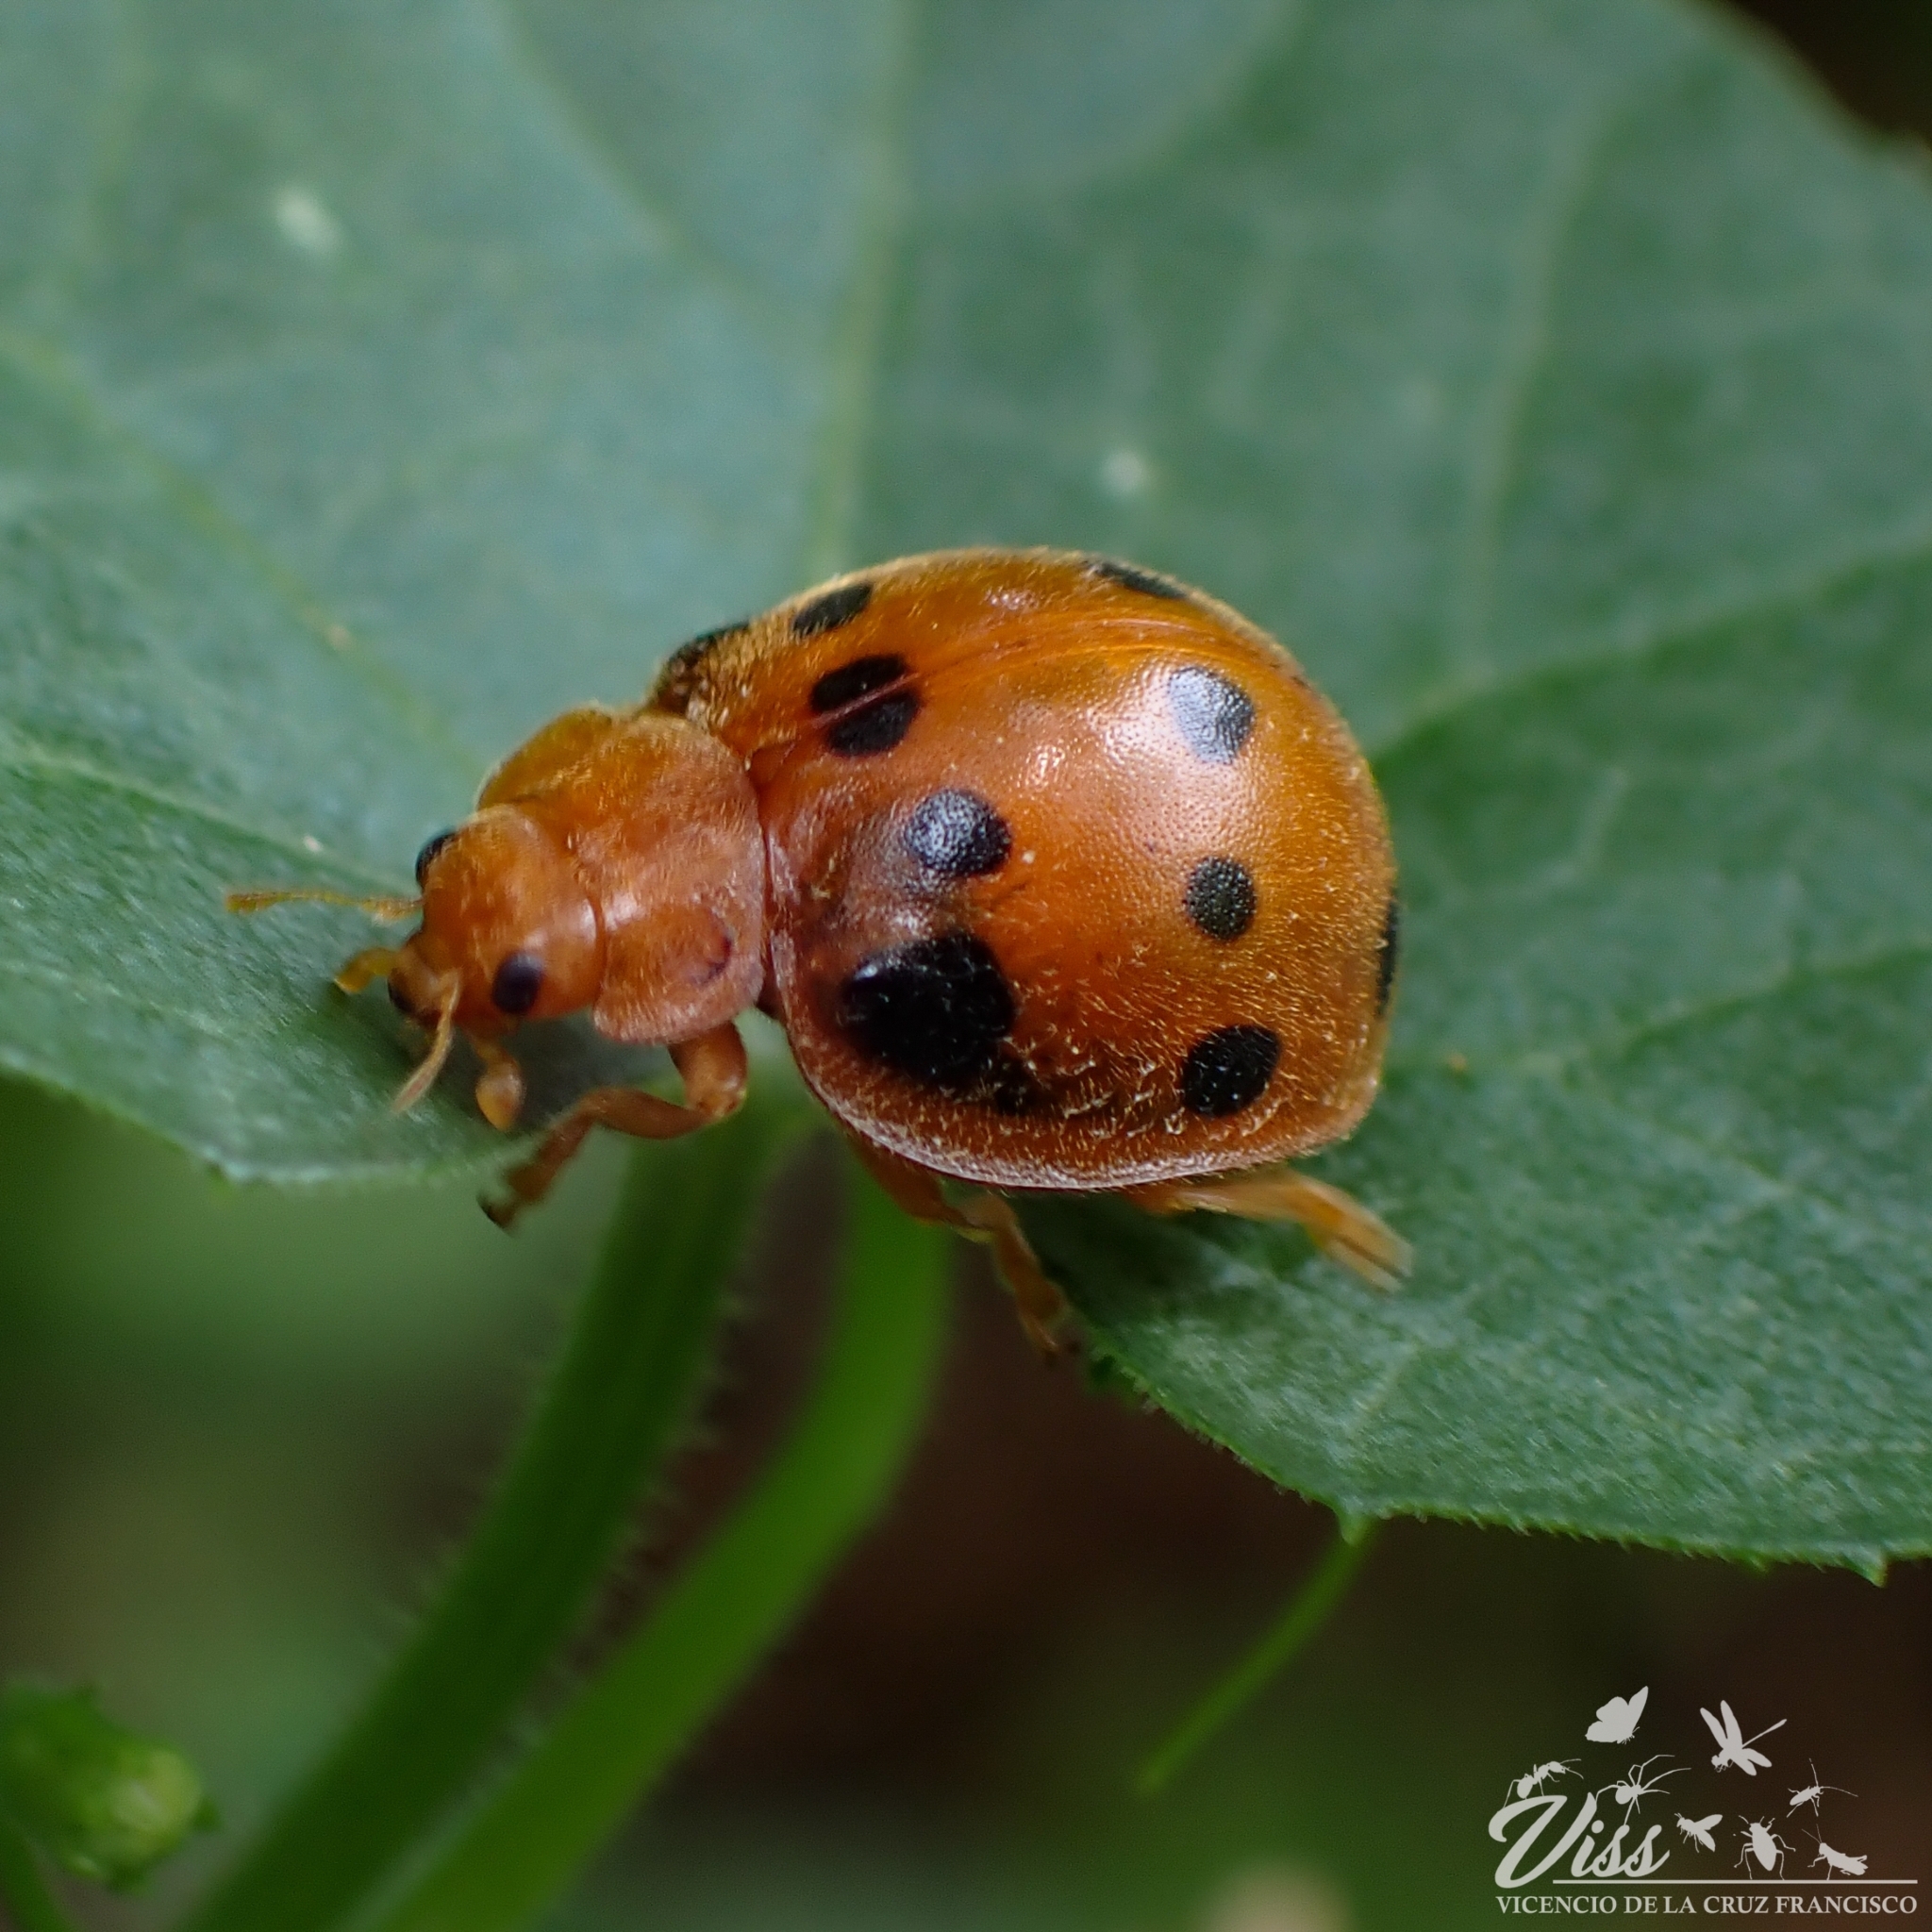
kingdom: Animalia
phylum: Arthropoda
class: Insecta
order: Coleoptera
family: Coccinellidae
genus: Epilachna
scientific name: Epilachna tredecimnotata
